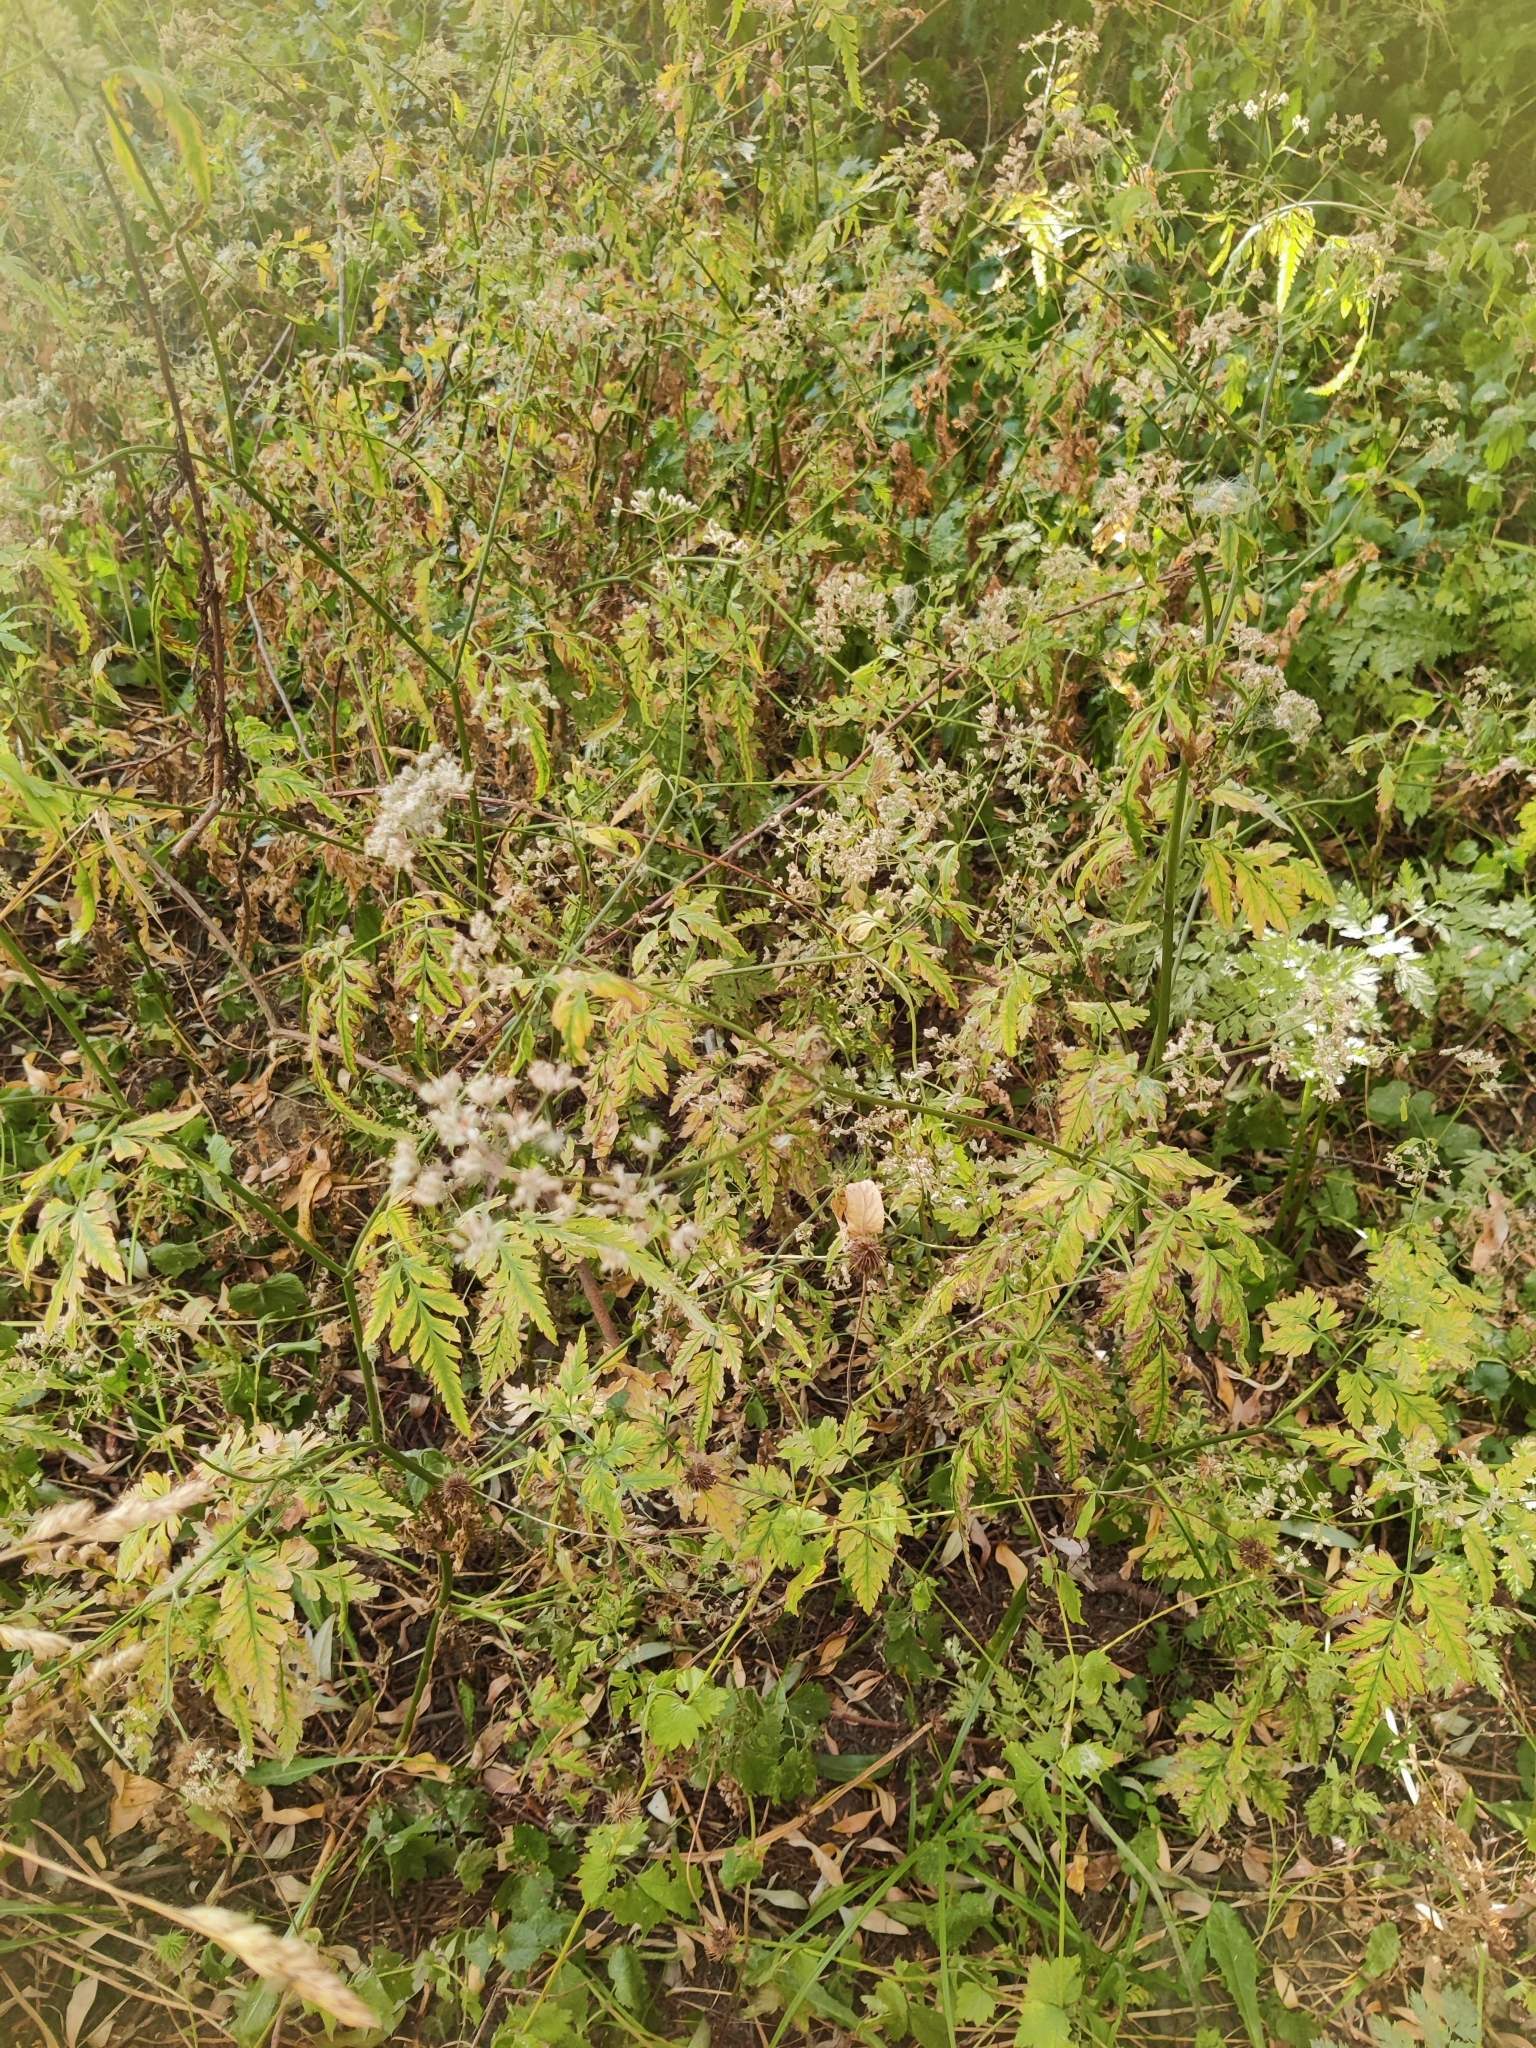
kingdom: Plantae
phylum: Tracheophyta
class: Magnoliopsida
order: Apiales
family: Apiaceae
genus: Torilis
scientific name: Torilis japonica
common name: Upright hedge-parsley
